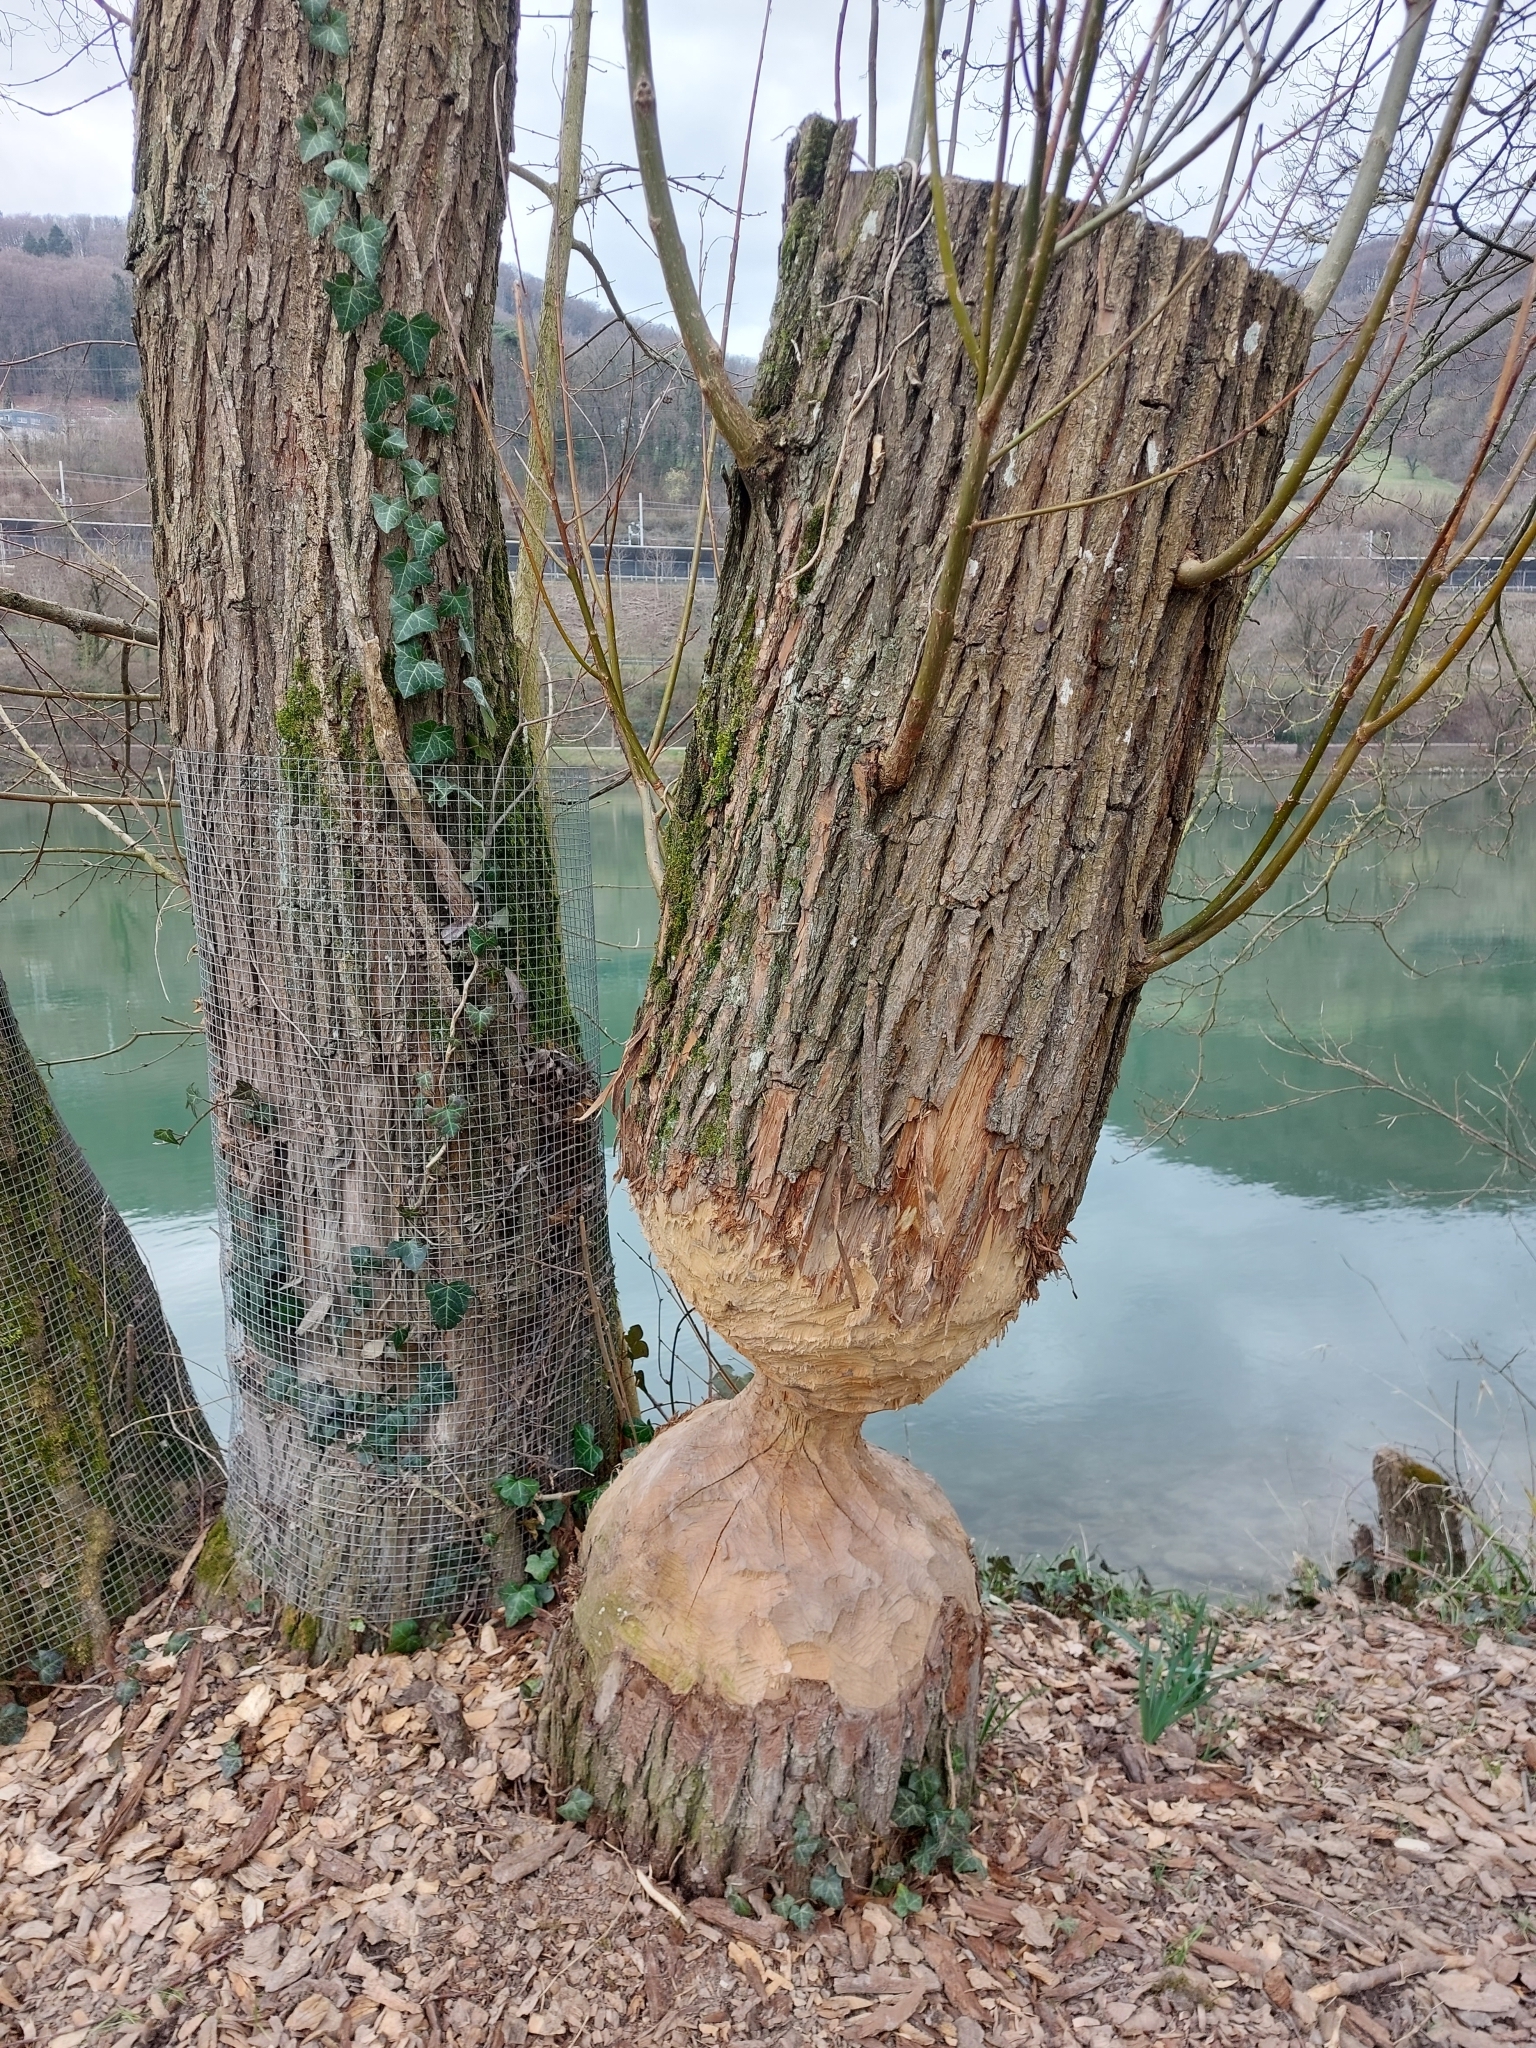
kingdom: Animalia
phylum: Chordata
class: Mammalia
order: Rodentia
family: Castoridae
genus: Castor
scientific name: Castor fiber
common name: Eurasian beaver
